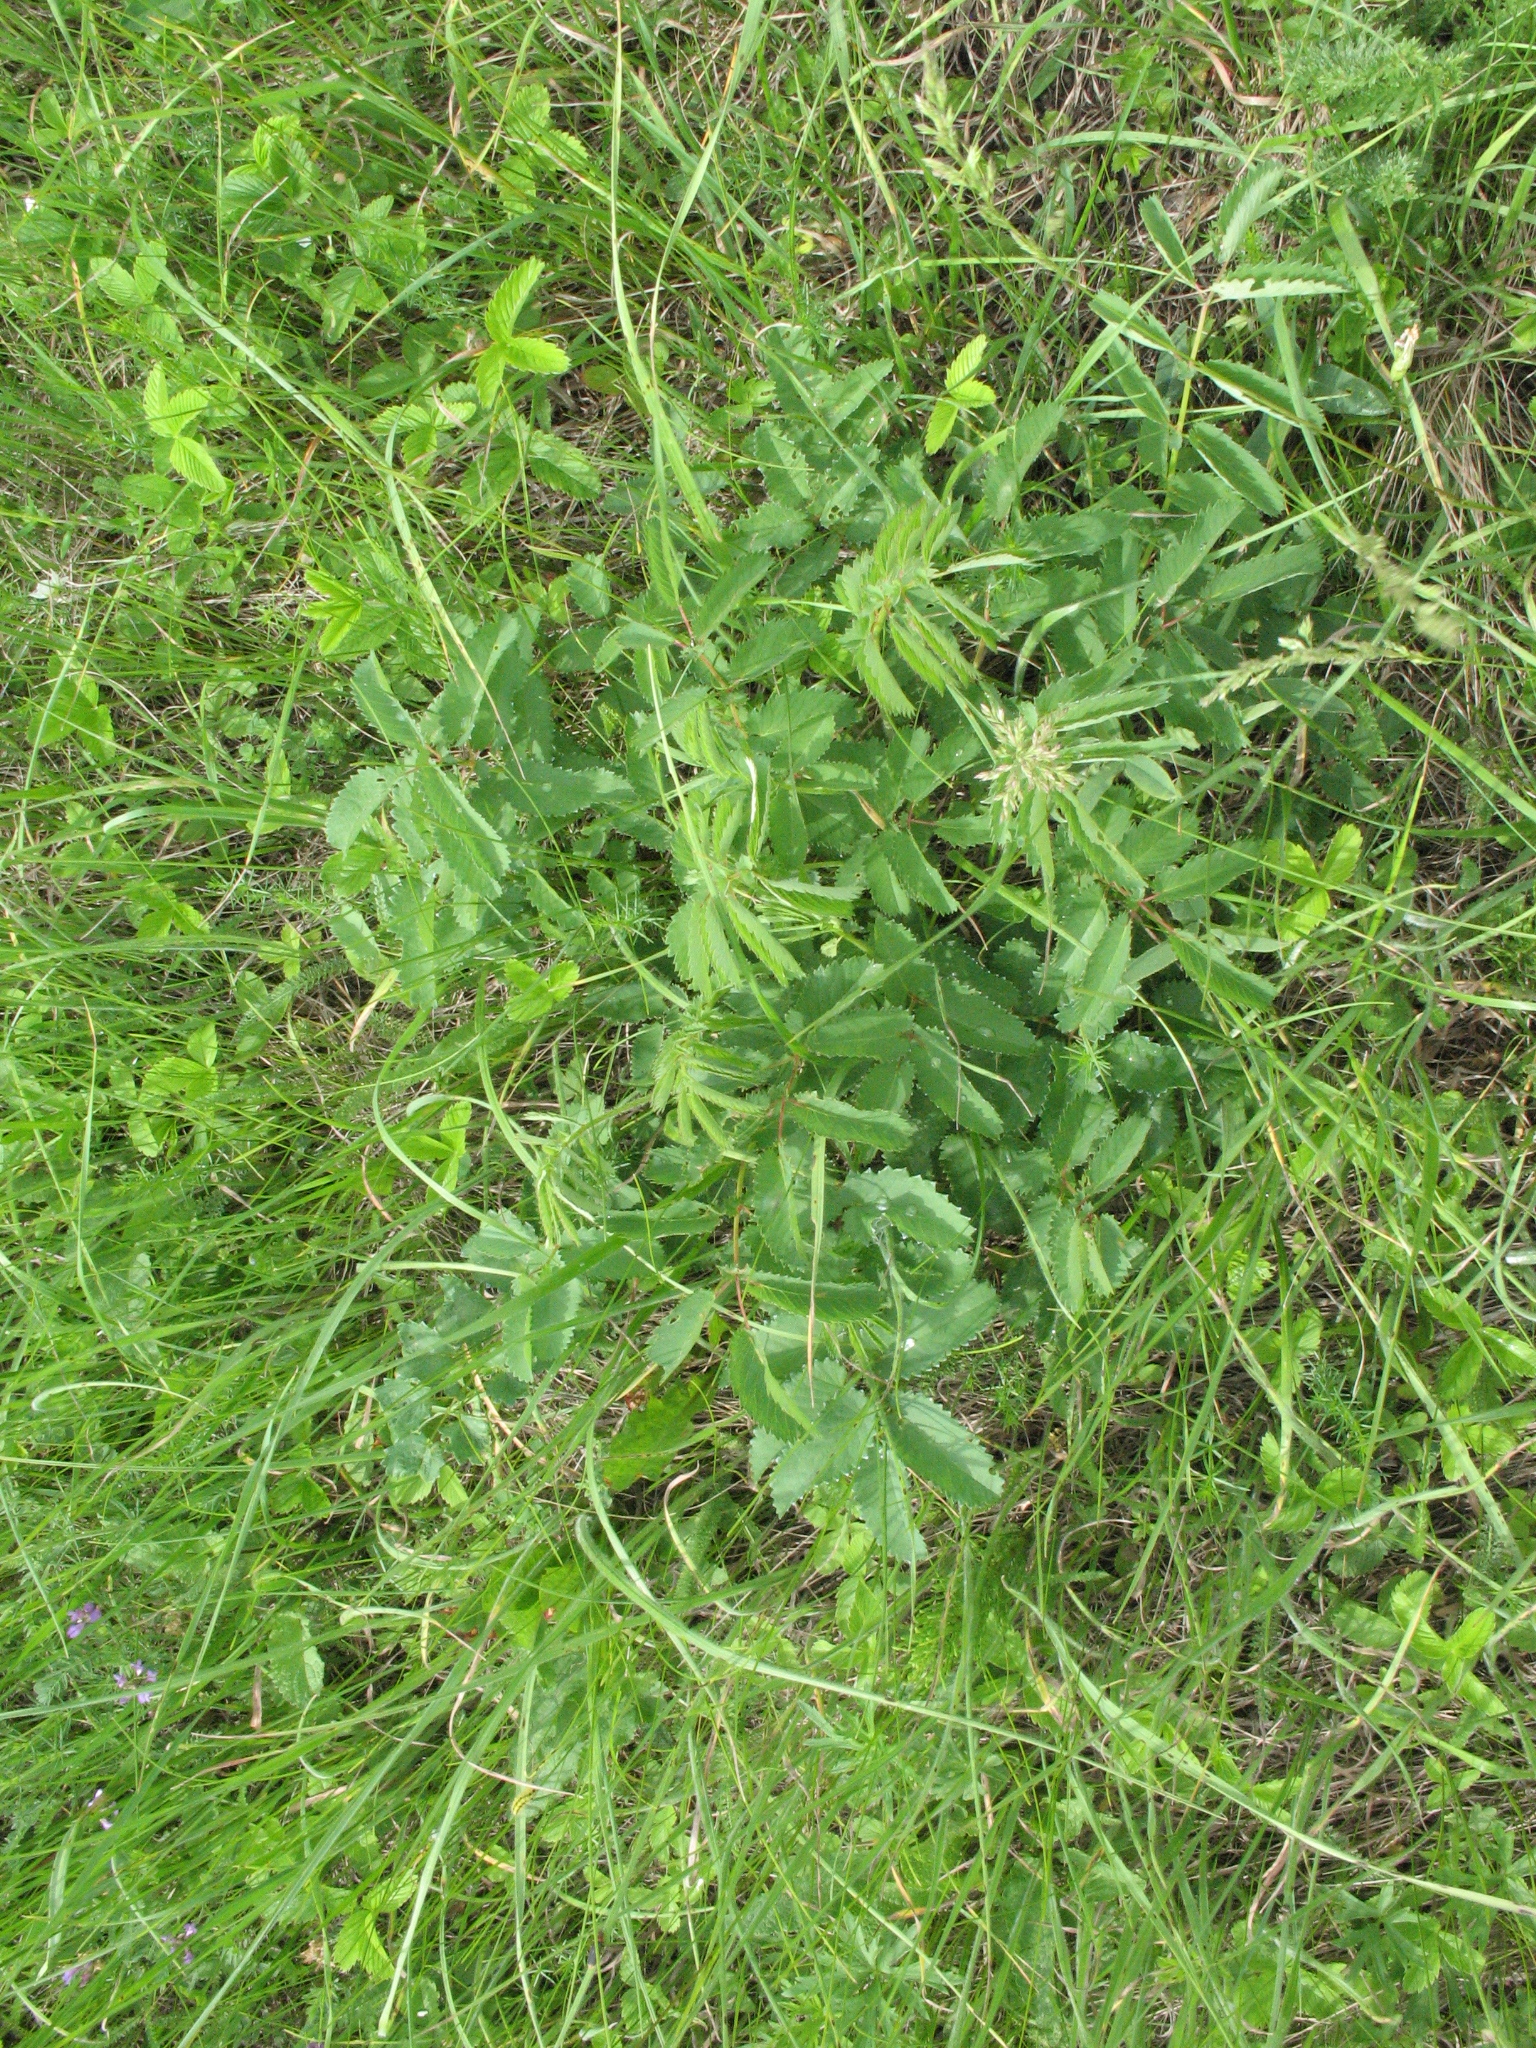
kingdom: Plantae
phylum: Tracheophyta
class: Magnoliopsida
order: Rosales
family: Rosaceae
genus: Sanguisorba
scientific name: Sanguisorba officinalis
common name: Great burnet
